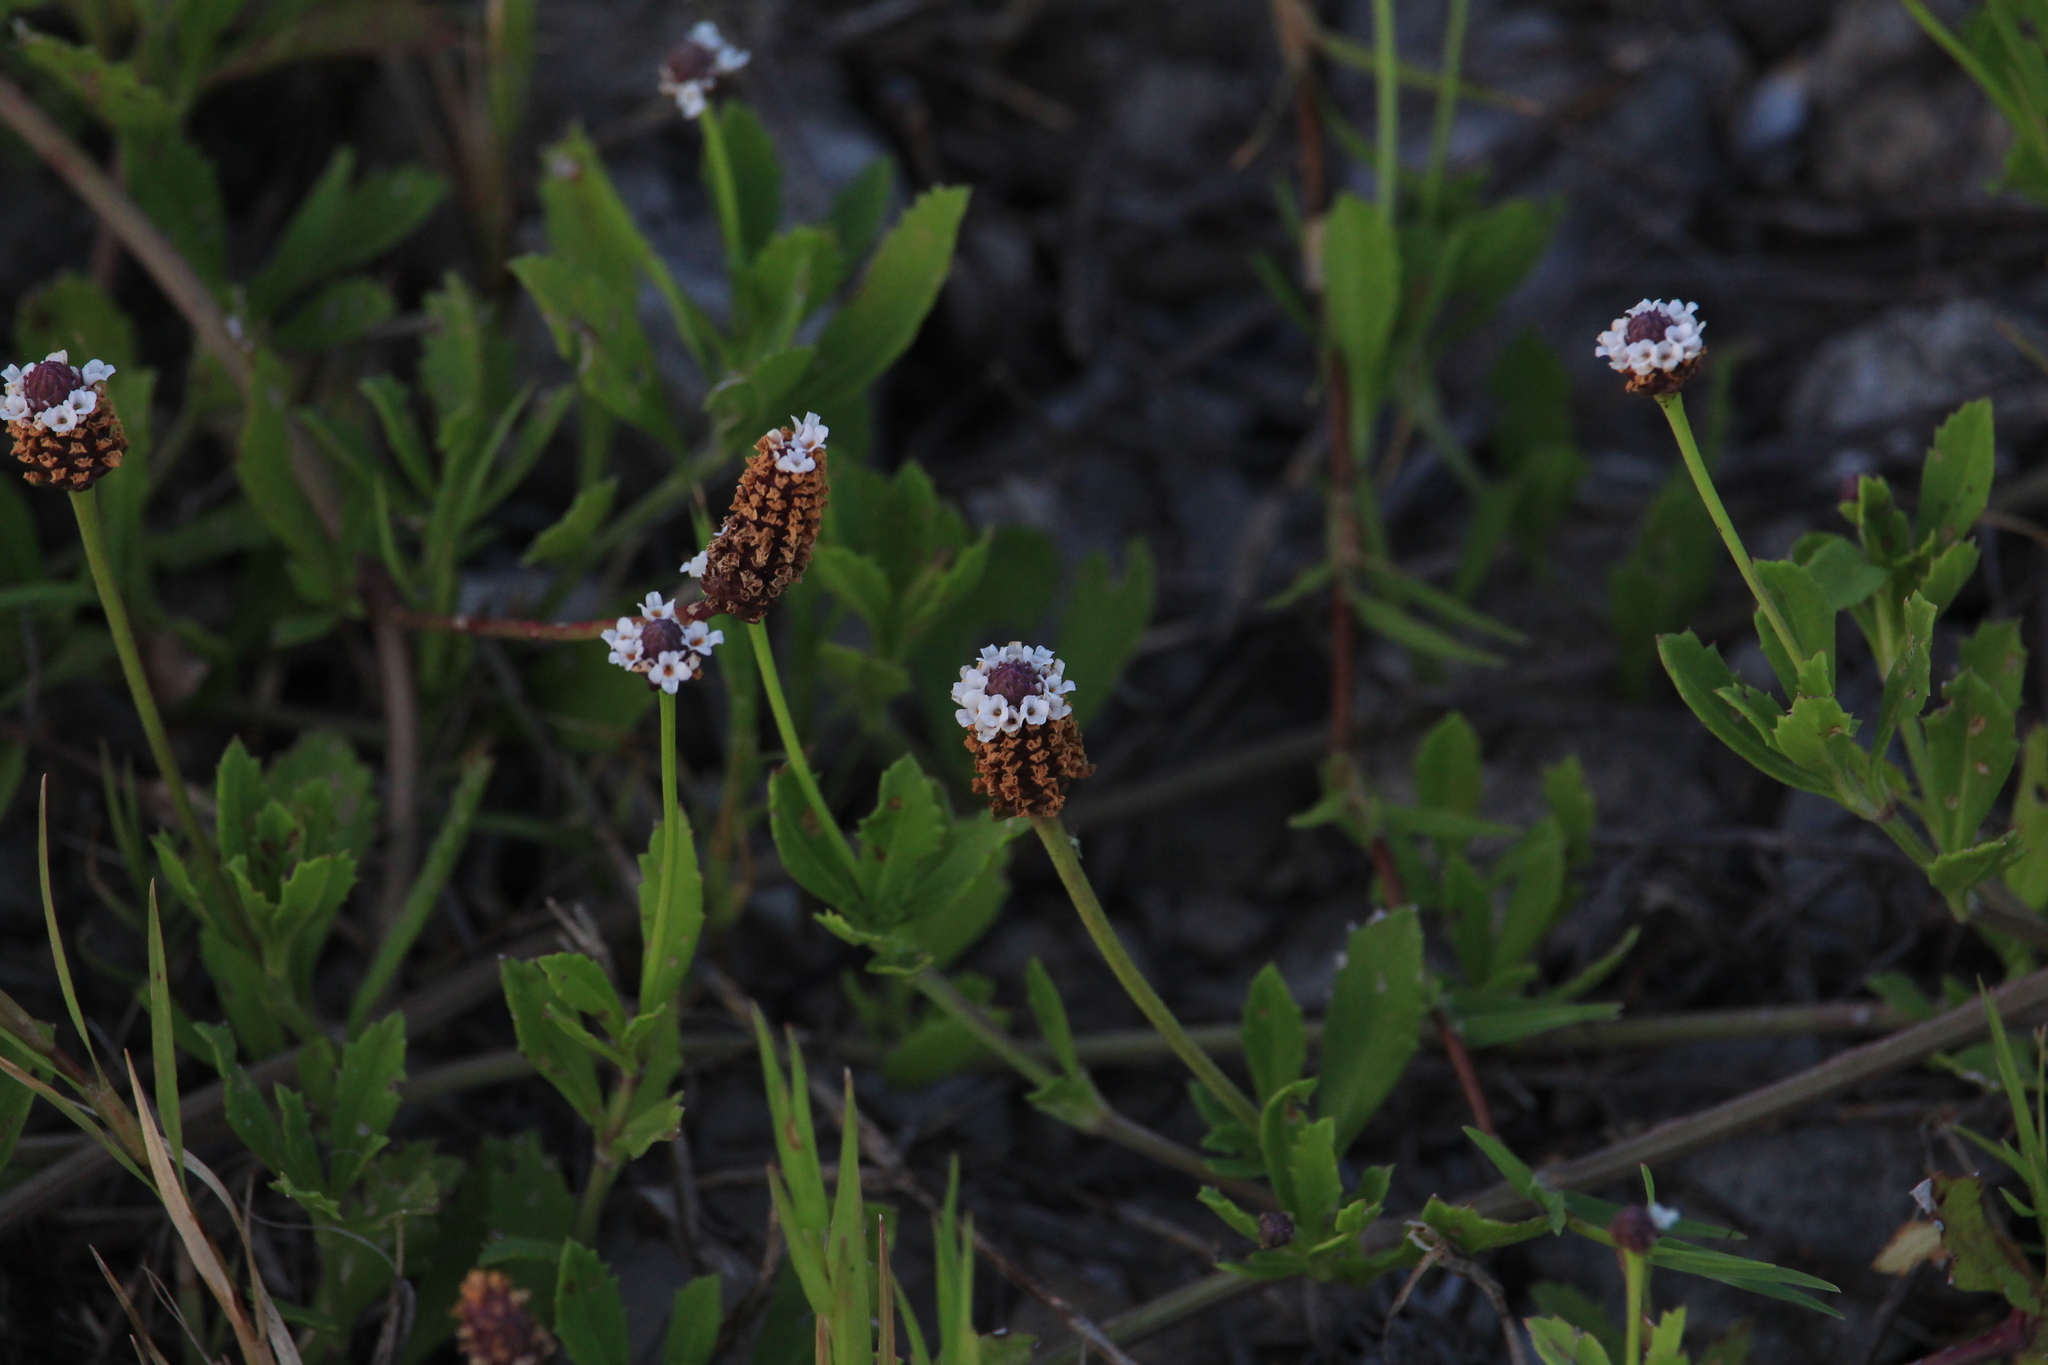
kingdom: Plantae
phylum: Tracheophyta
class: Magnoliopsida
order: Lamiales
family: Verbenaceae
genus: Phyla
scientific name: Phyla nodiflora
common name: Frogfruit
